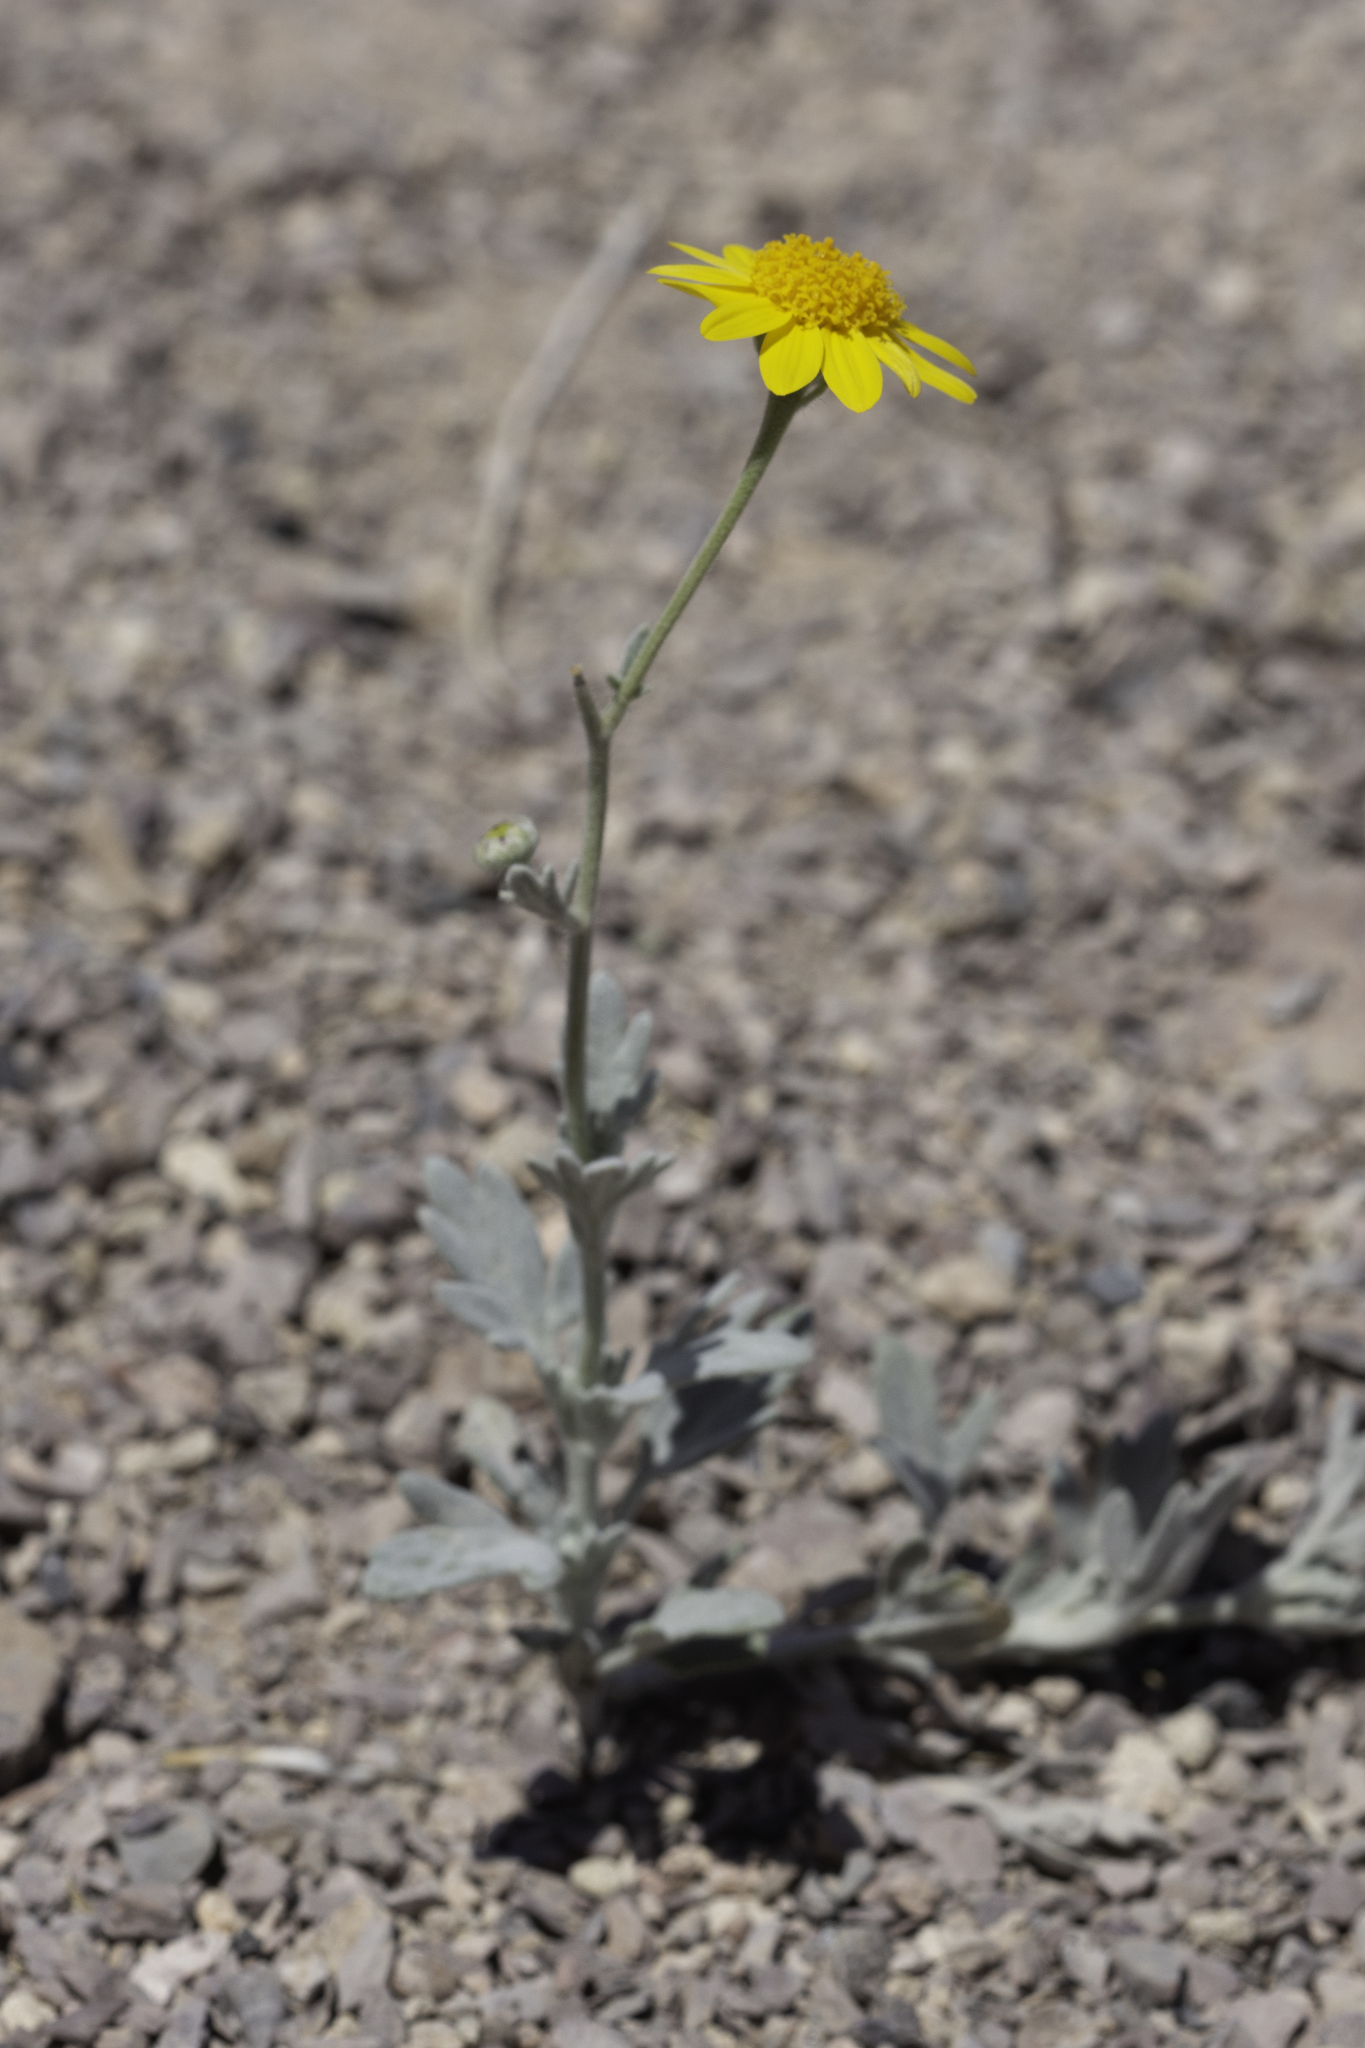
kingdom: Plantae
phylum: Tracheophyta
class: Magnoliopsida
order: Asterales
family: Asteraceae
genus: Picradeniopsis
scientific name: Picradeniopsis absinthifolia
